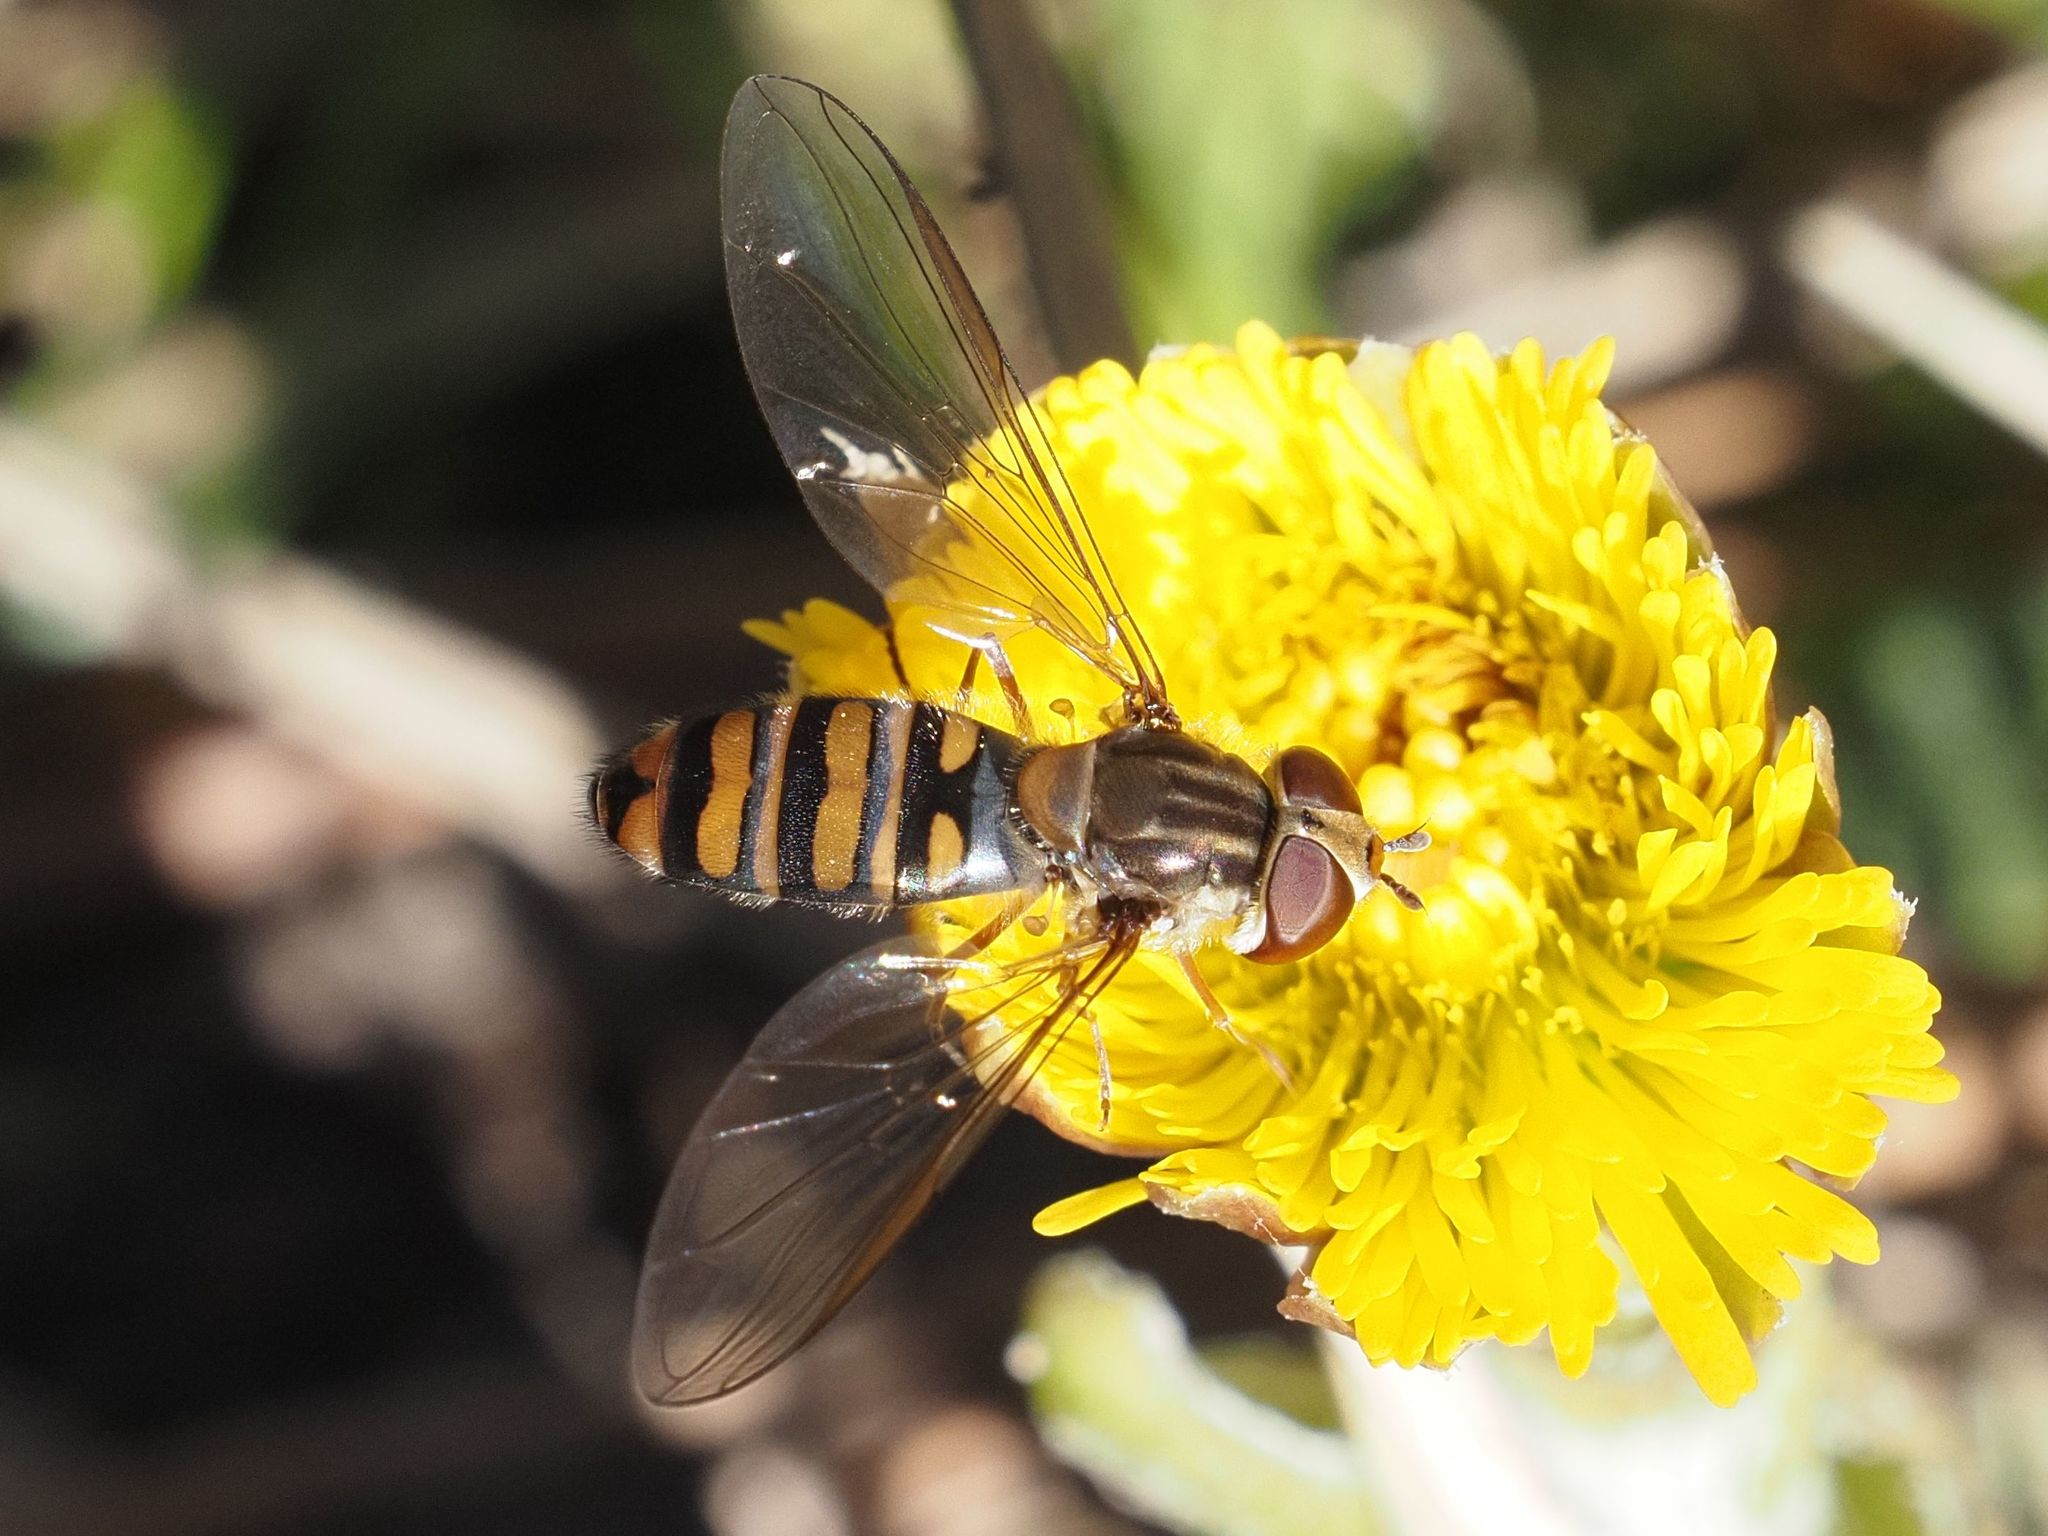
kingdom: Animalia
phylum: Arthropoda
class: Insecta
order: Diptera
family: Syrphidae
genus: Episyrphus
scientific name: Episyrphus balteatus
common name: Marmalade hoverfly
